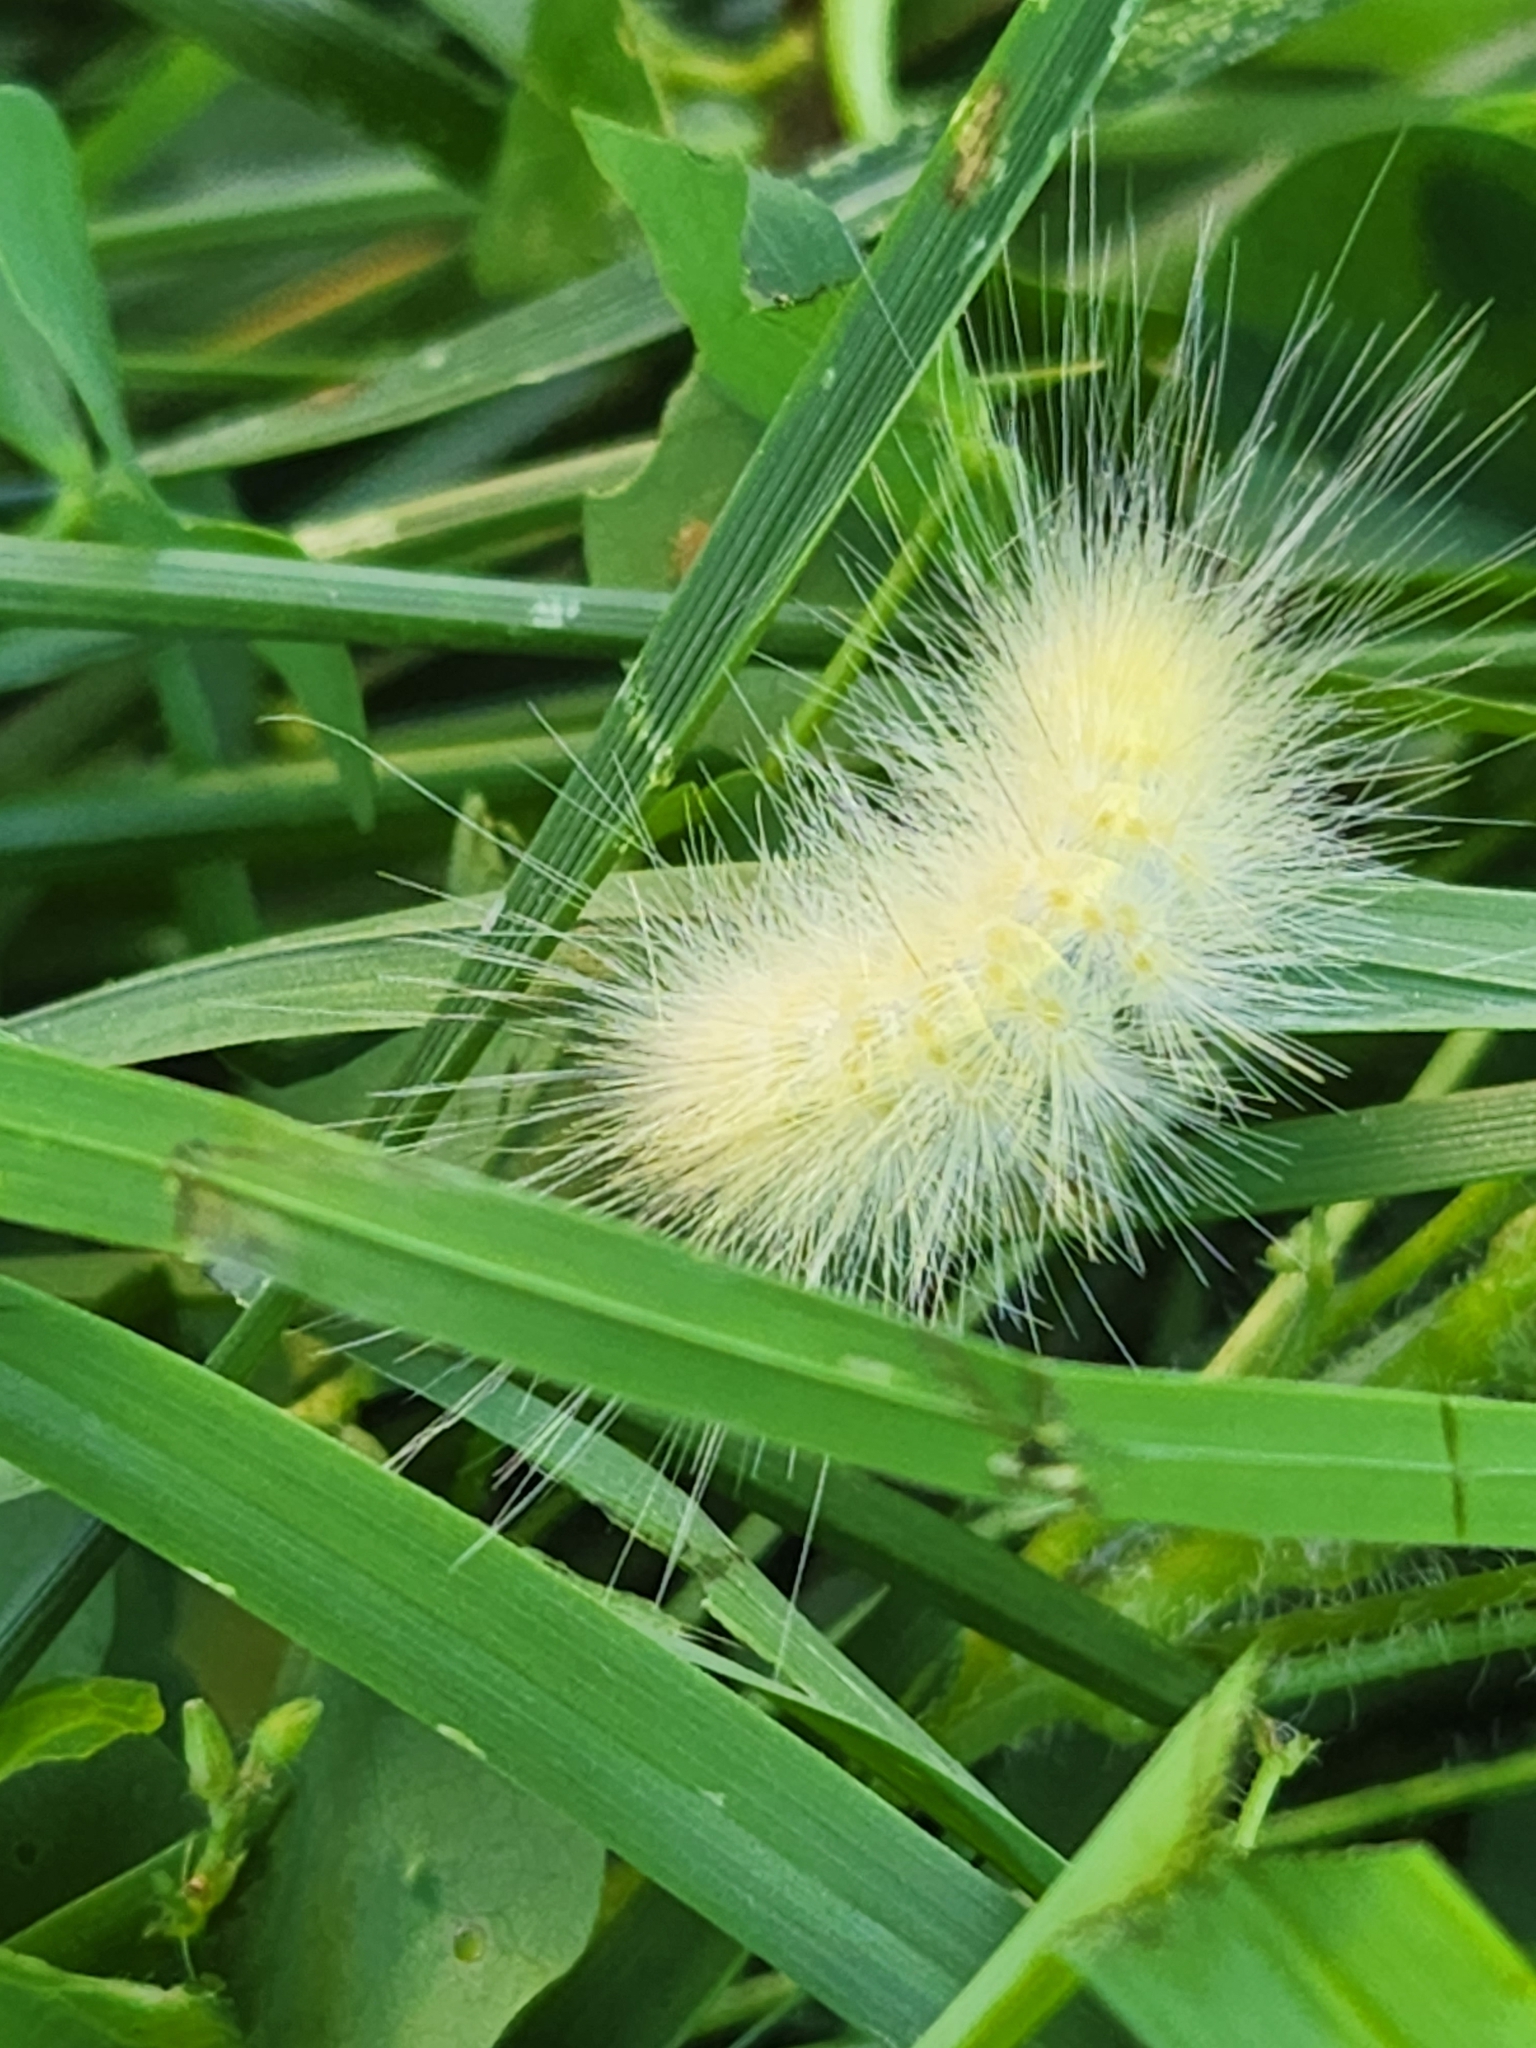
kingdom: Animalia
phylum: Arthropoda
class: Insecta
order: Lepidoptera
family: Erebidae
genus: Spilosoma
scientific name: Spilosoma virginica
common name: Virginia tiger moth
